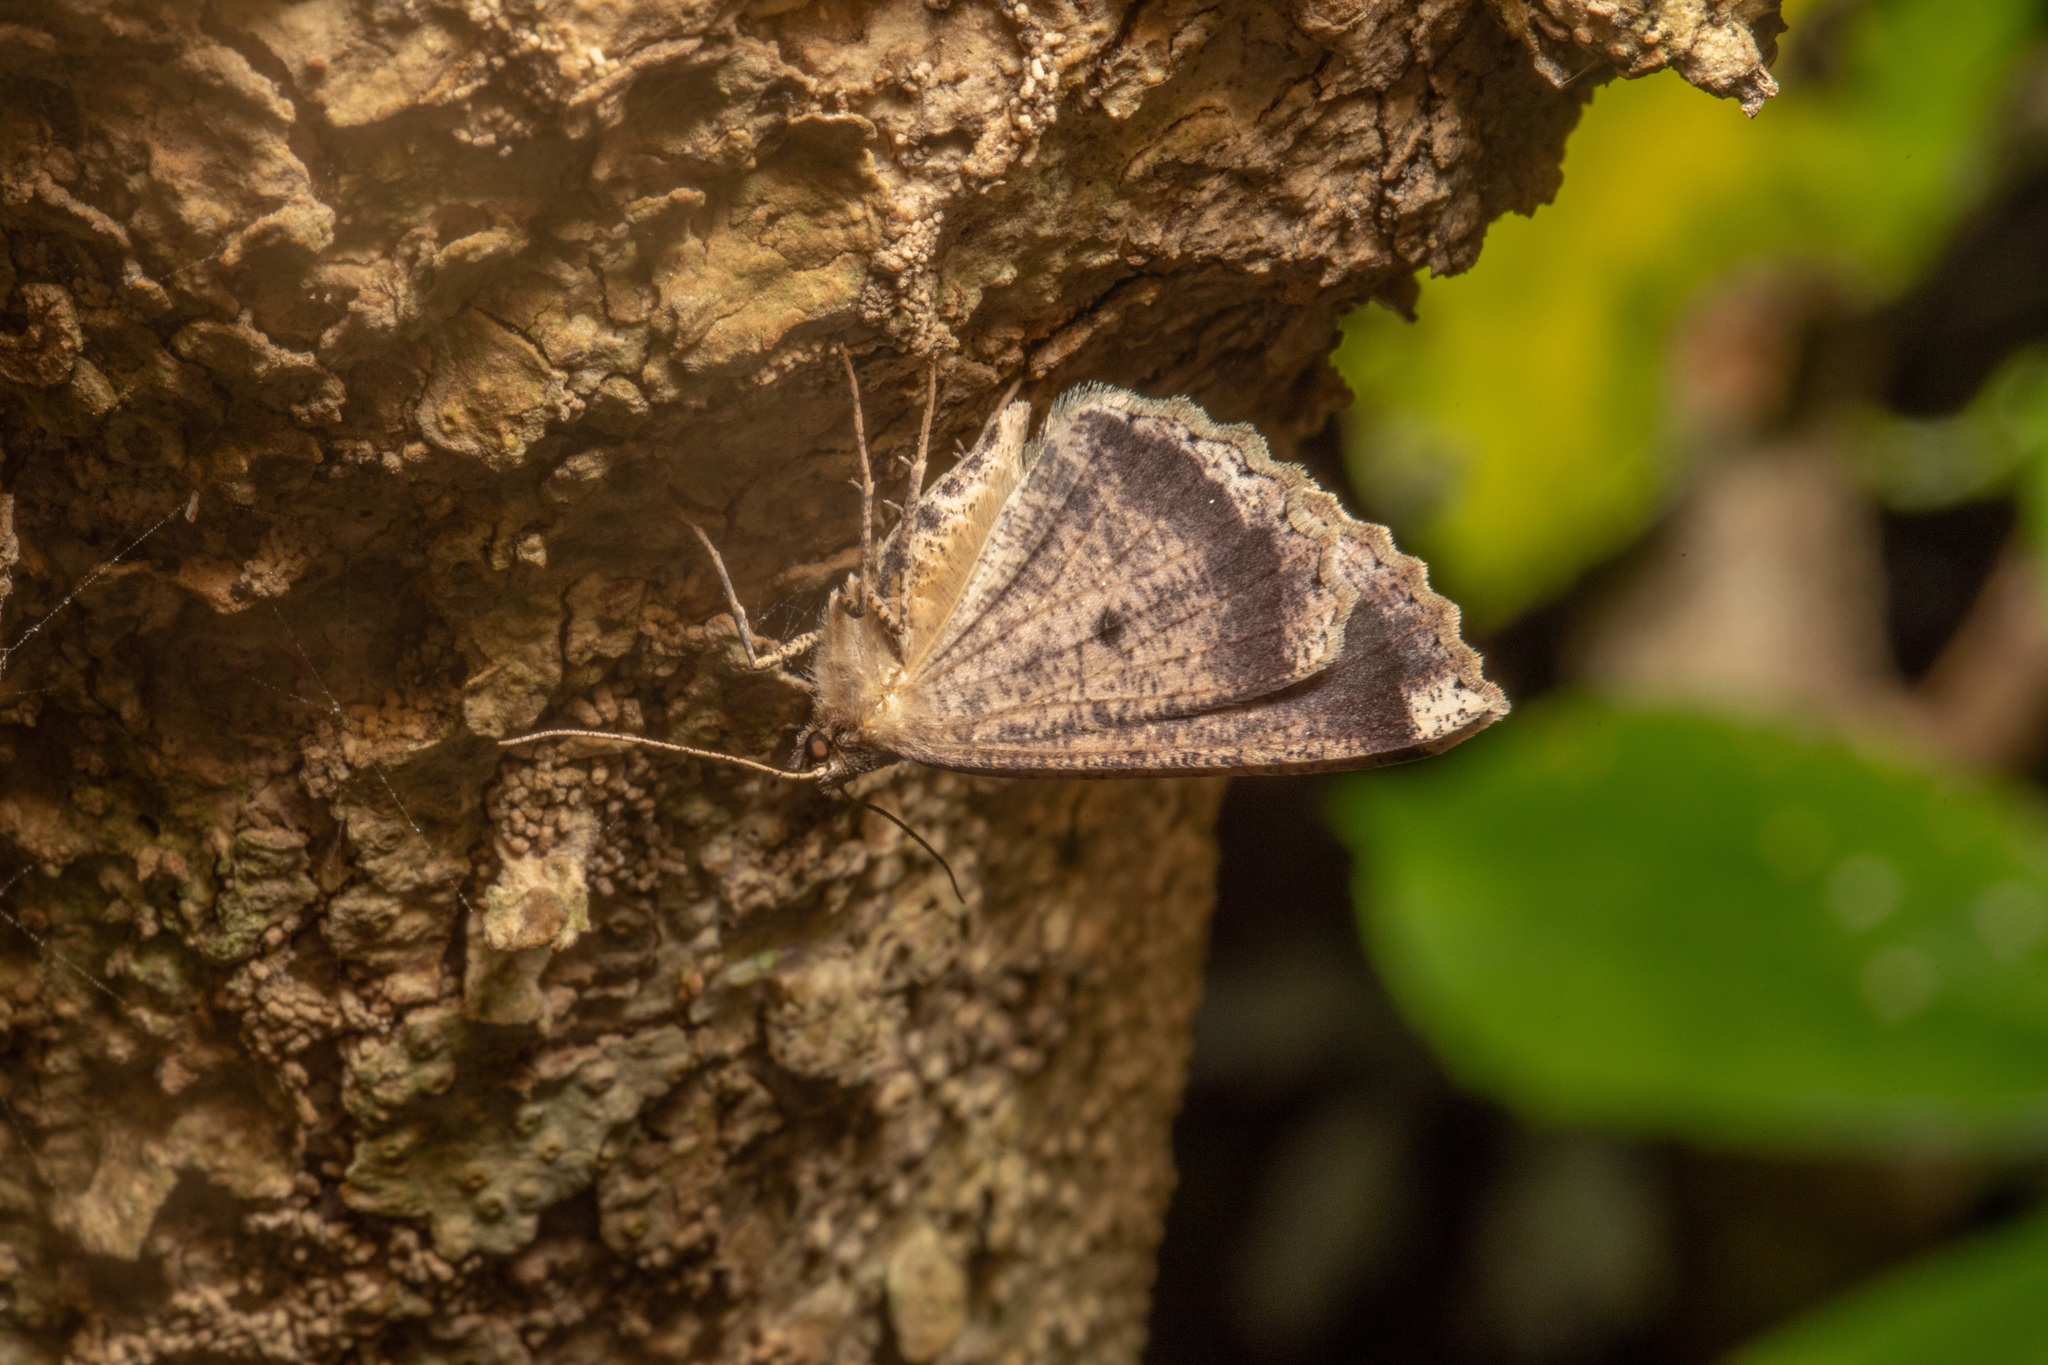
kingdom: Animalia
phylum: Arthropoda
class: Insecta
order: Lepidoptera
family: Geometridae
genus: Gellonia
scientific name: Gellonia dejectaria
